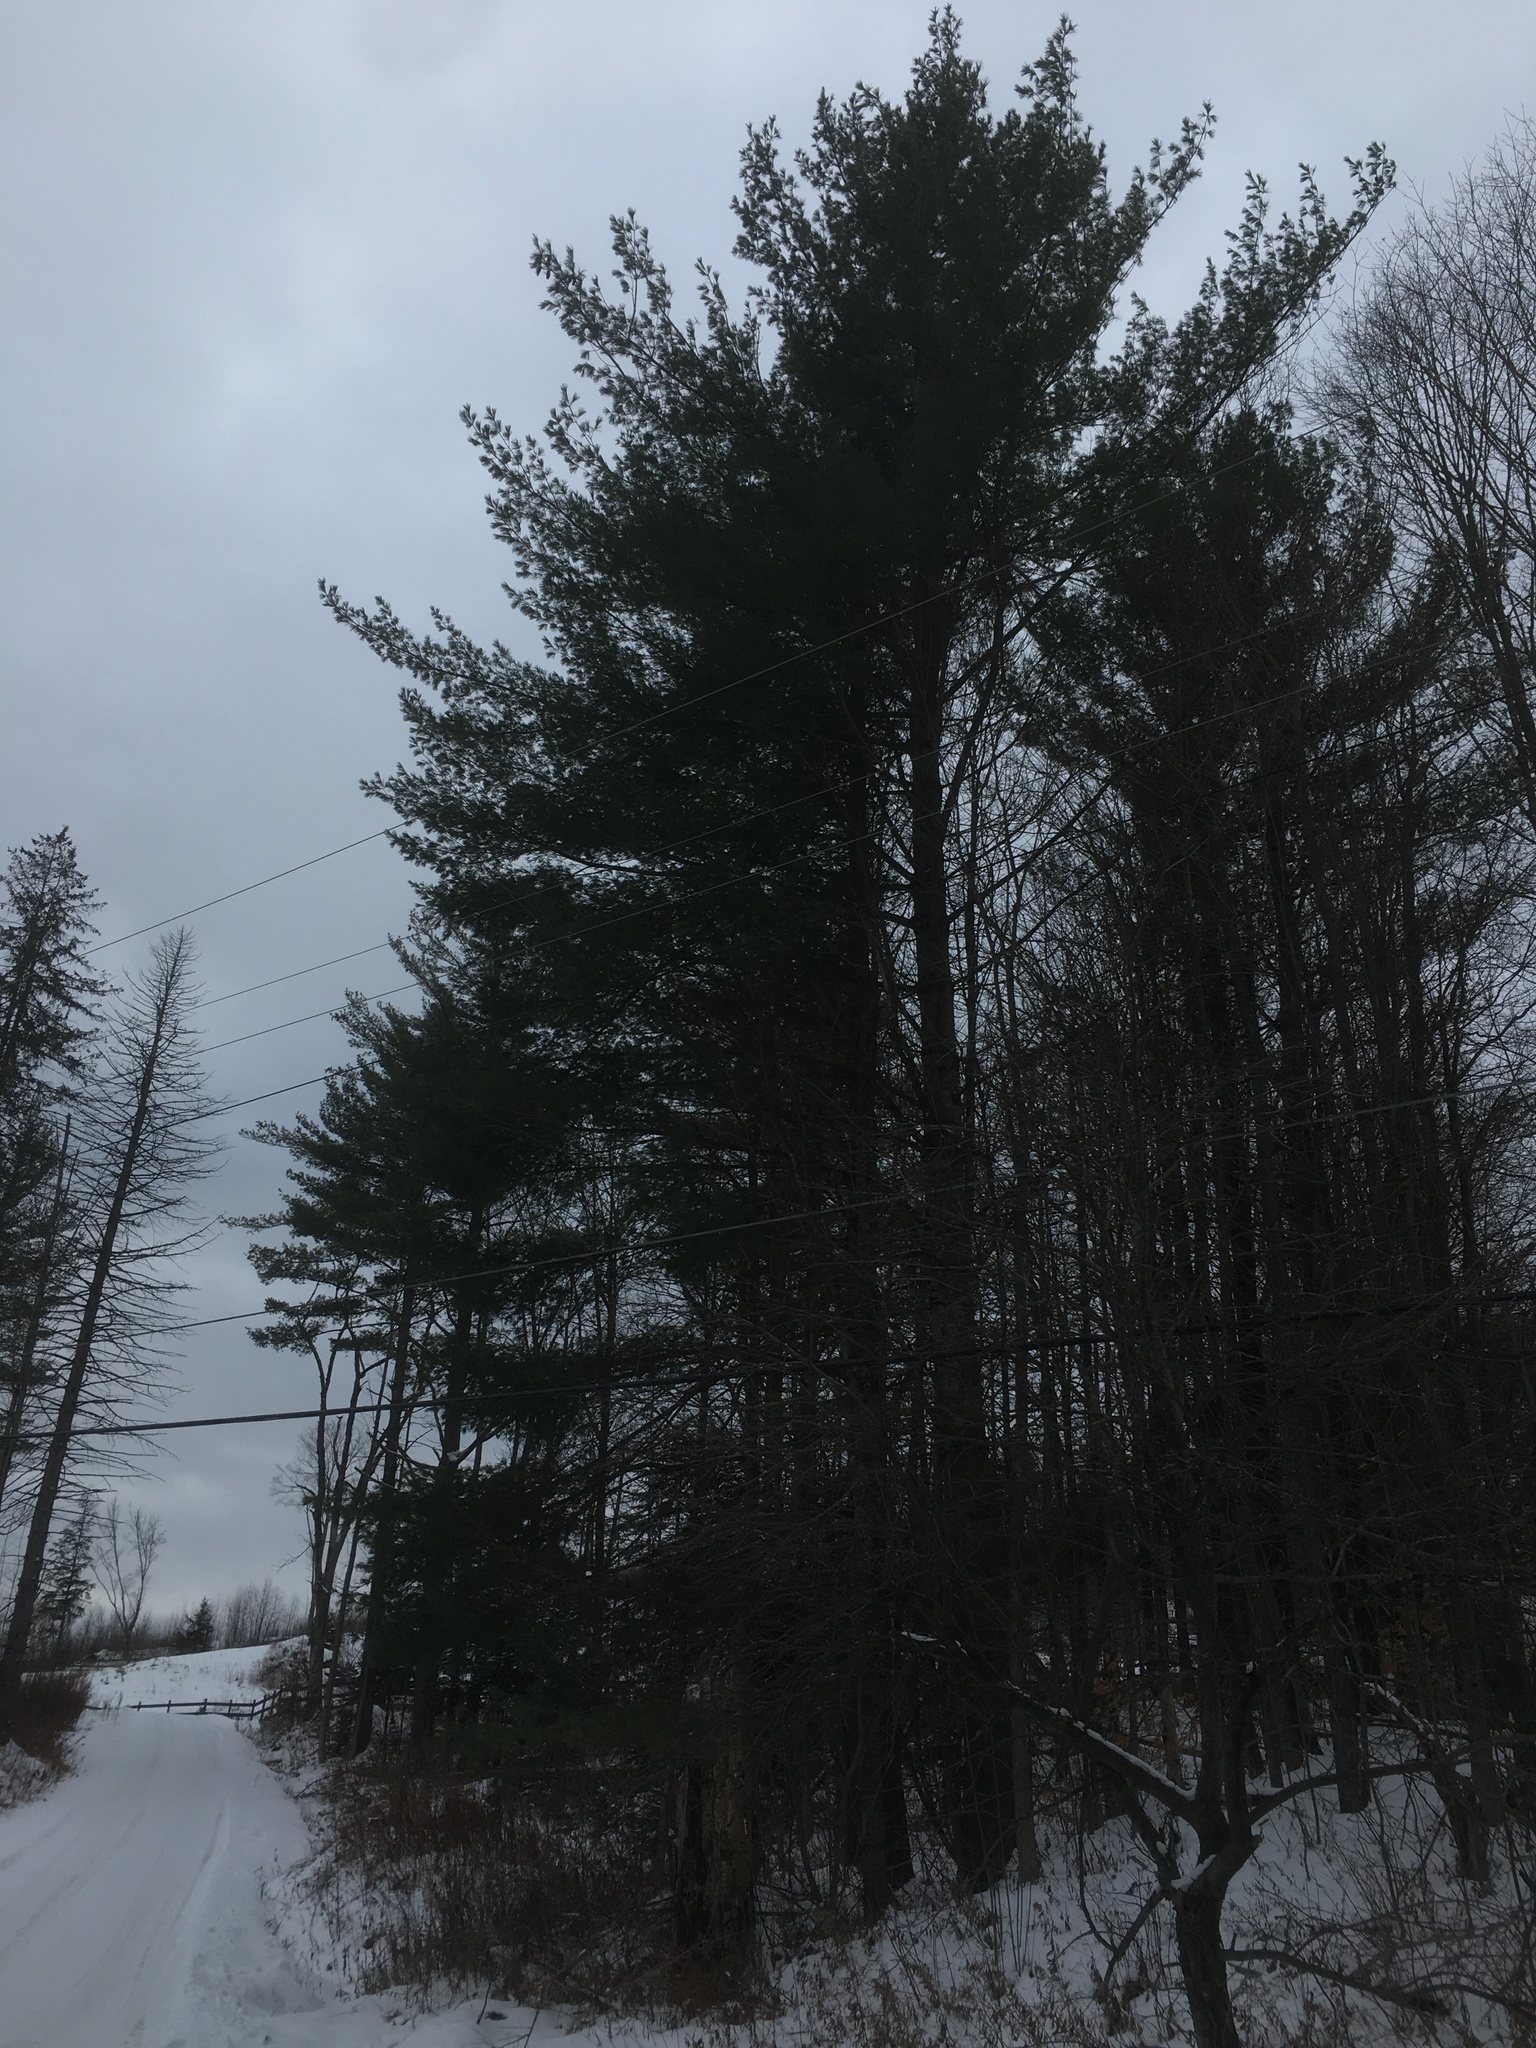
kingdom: Plantae
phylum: Tracheophyta
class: Pinopsida
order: Pinales
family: Pinaceae
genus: Pinus
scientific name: Pinus strobus
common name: Weymouth pine
